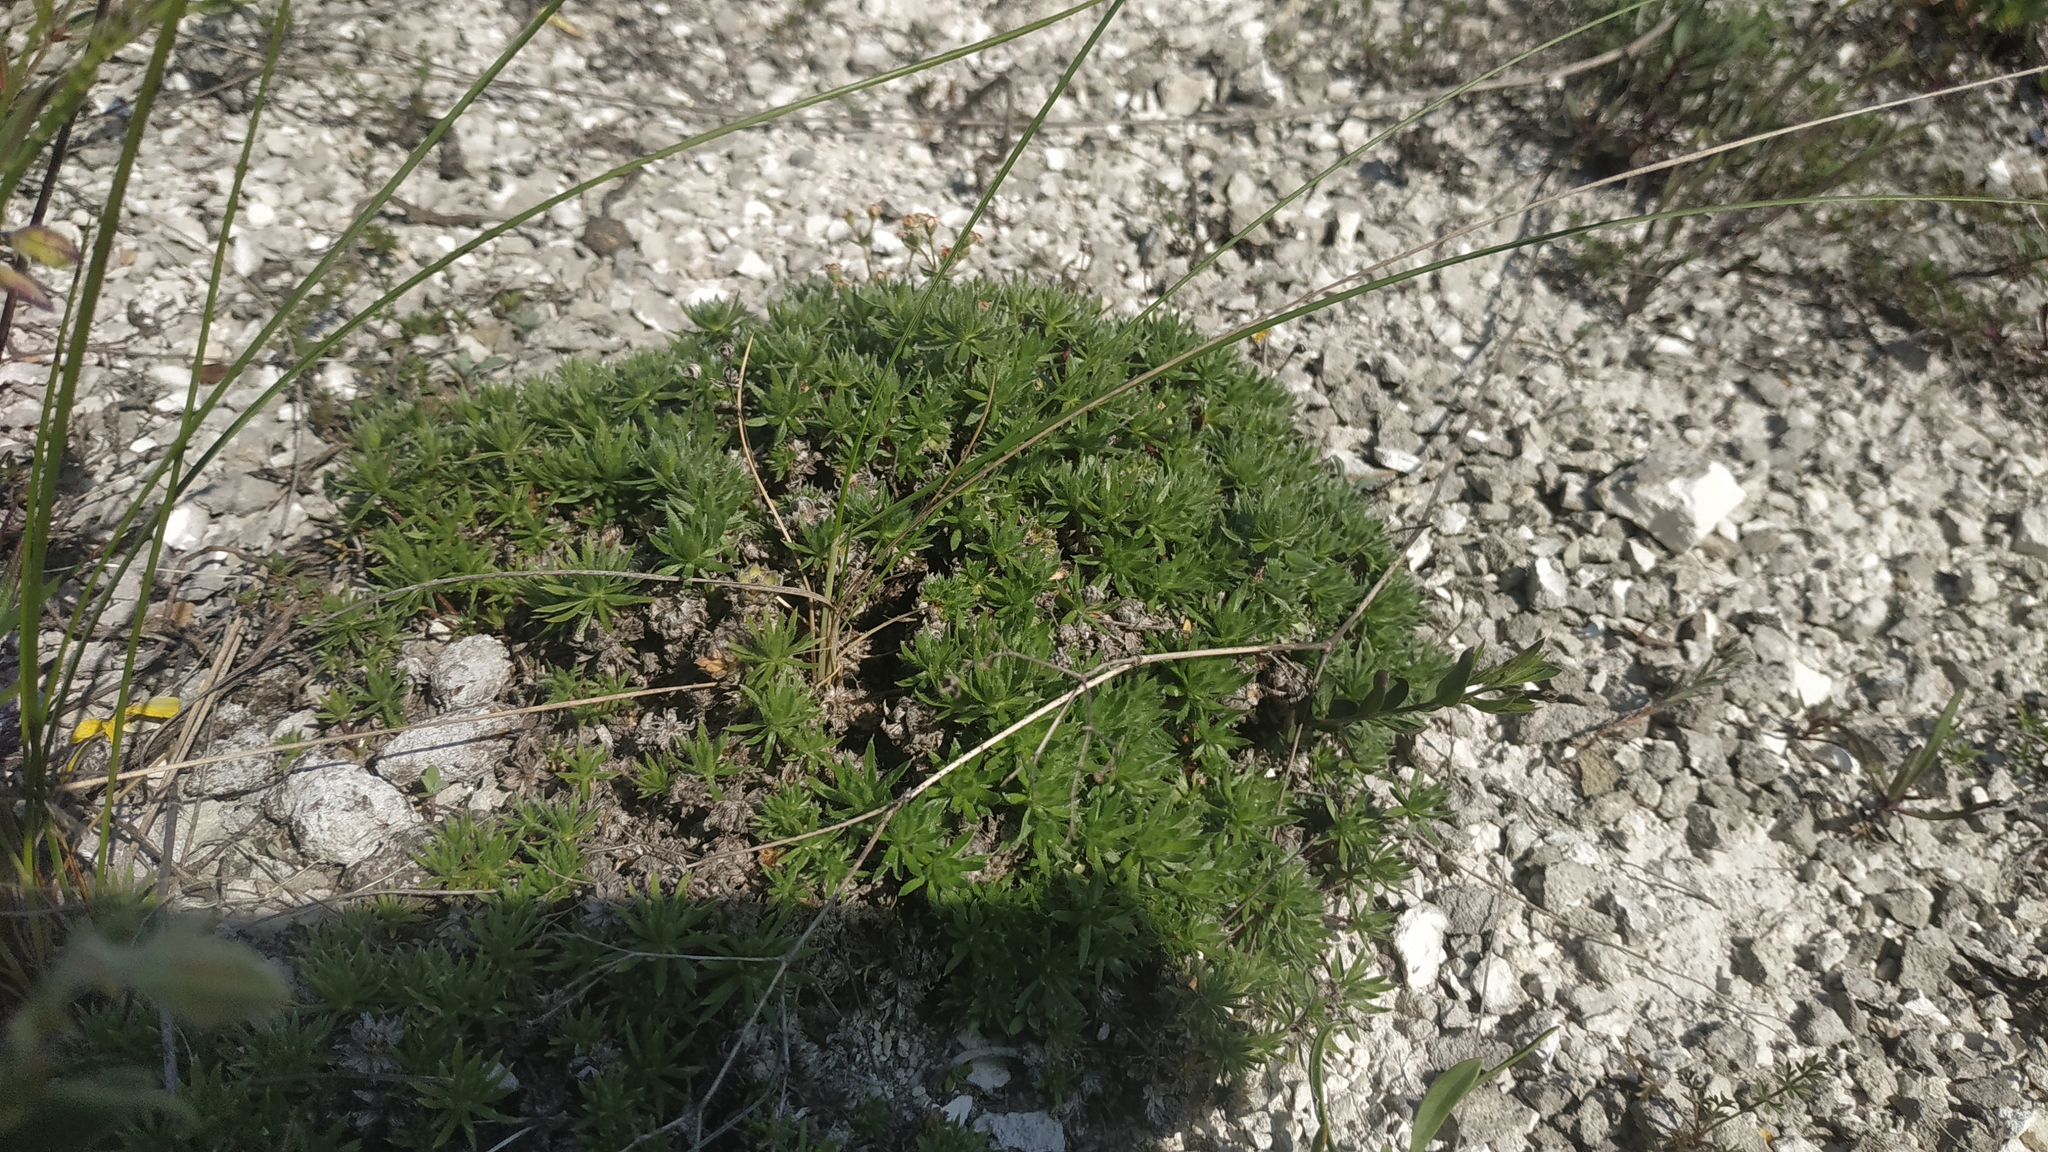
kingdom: Plantae
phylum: Tracheophyta
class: Magnoliopsida
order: Ericales
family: Primulaceae
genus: Androsace
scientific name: Androsace villosa
